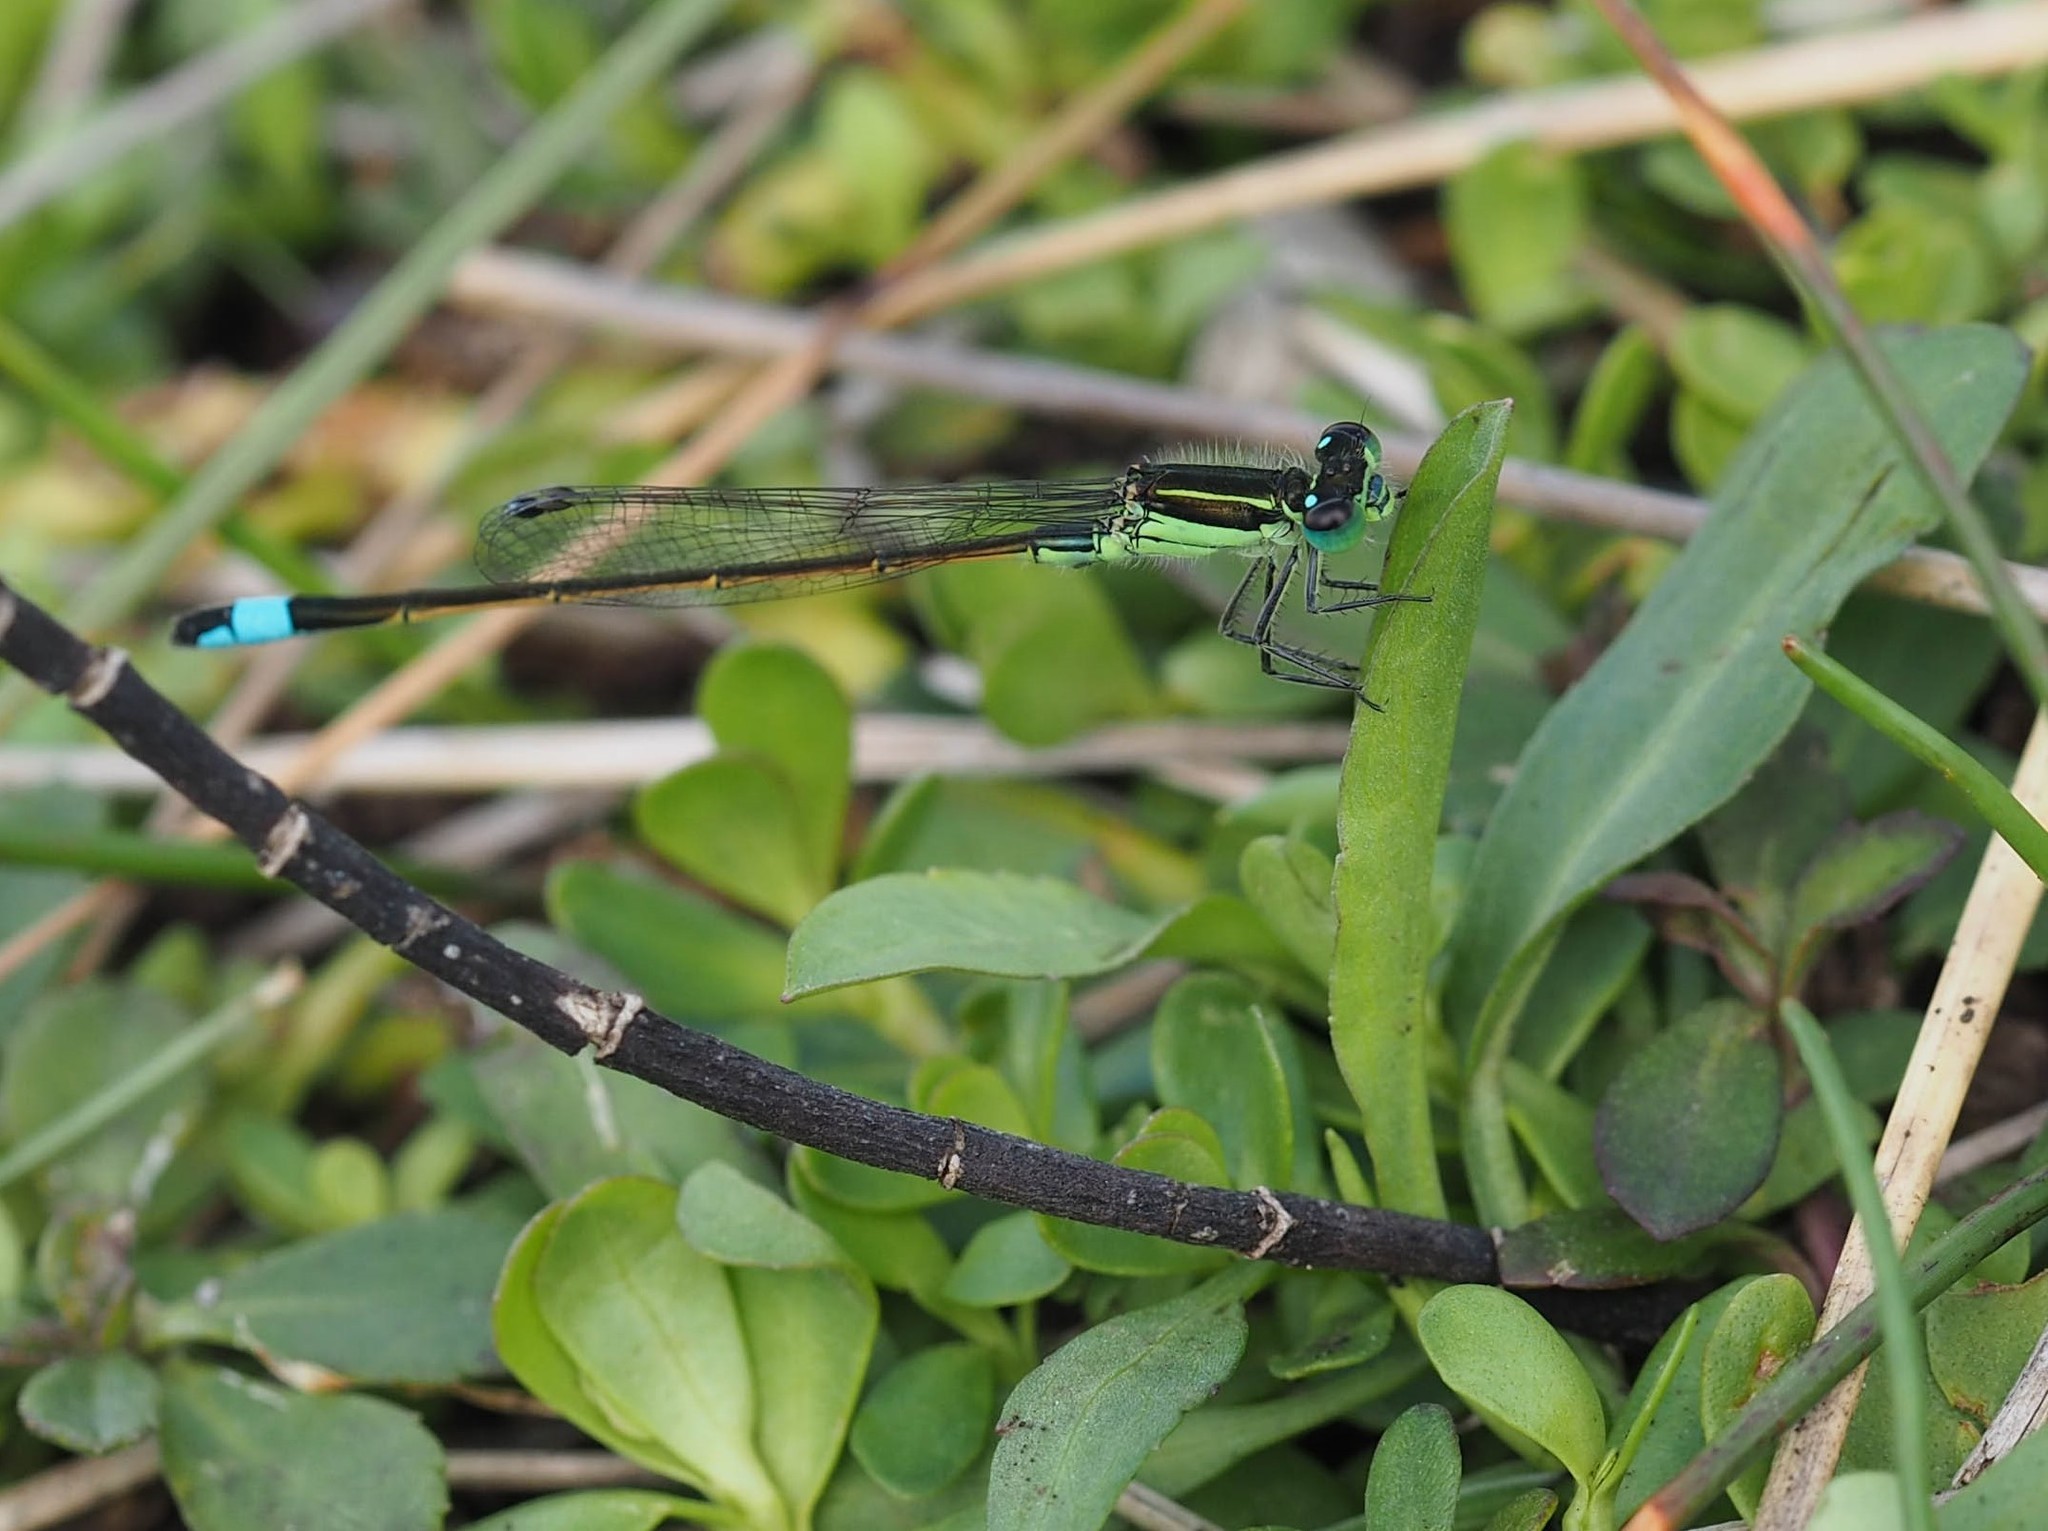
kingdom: Animalia
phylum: Arthropoda
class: Insecta
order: Odonata
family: Coenagrionidae
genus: Ischnura
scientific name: Ischnura ramburii
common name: Rambur's forktail
